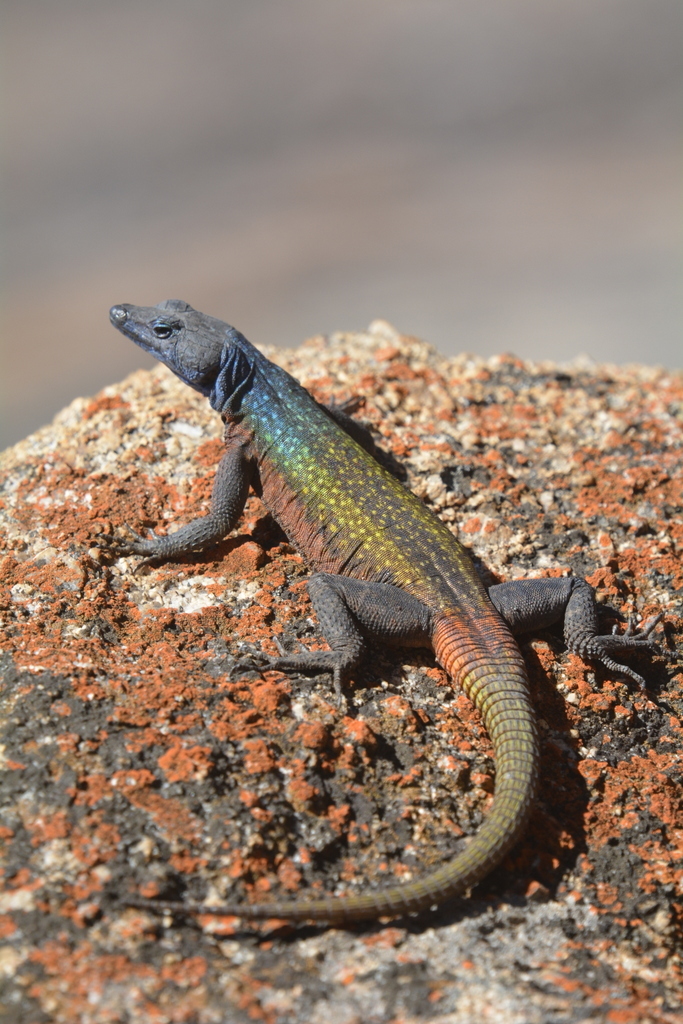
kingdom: Animalia
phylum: Chordata
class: Squamata
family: Cordylidae
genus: Platysaurus
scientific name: Platysaurus intermedius
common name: Common flat lizard
